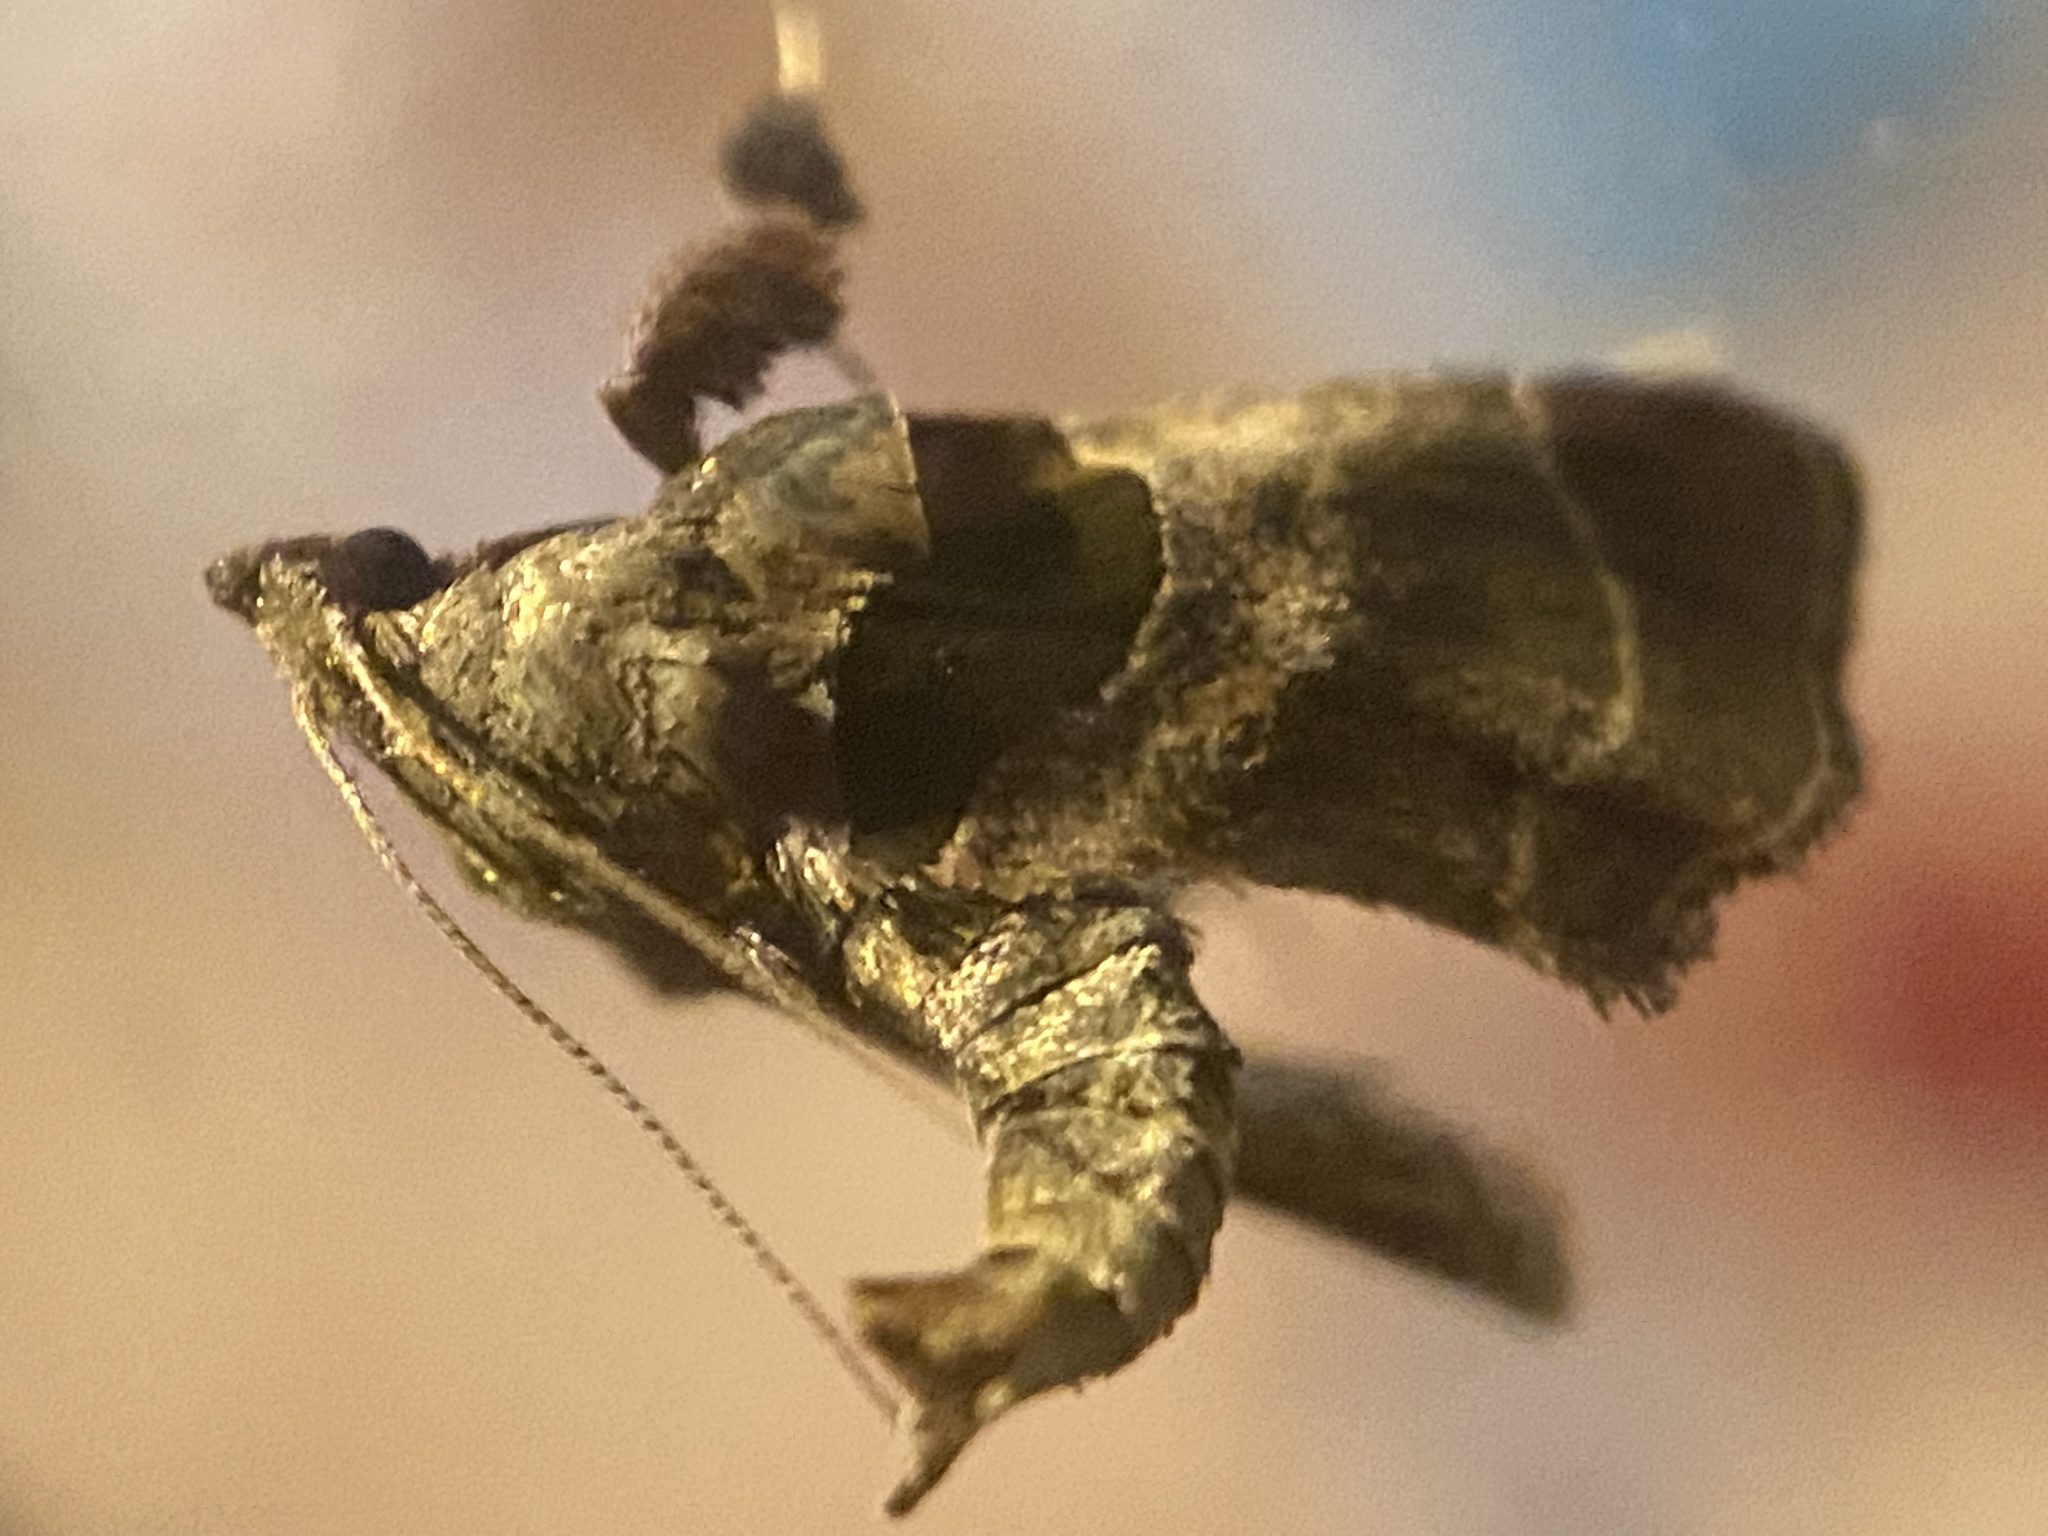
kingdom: Animalia
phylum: Arthropoda
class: Insecta
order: Lepidoptera
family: Pyralidae
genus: Tosale
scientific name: Tosale oviplagalis
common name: Dimorphic tosale moth
